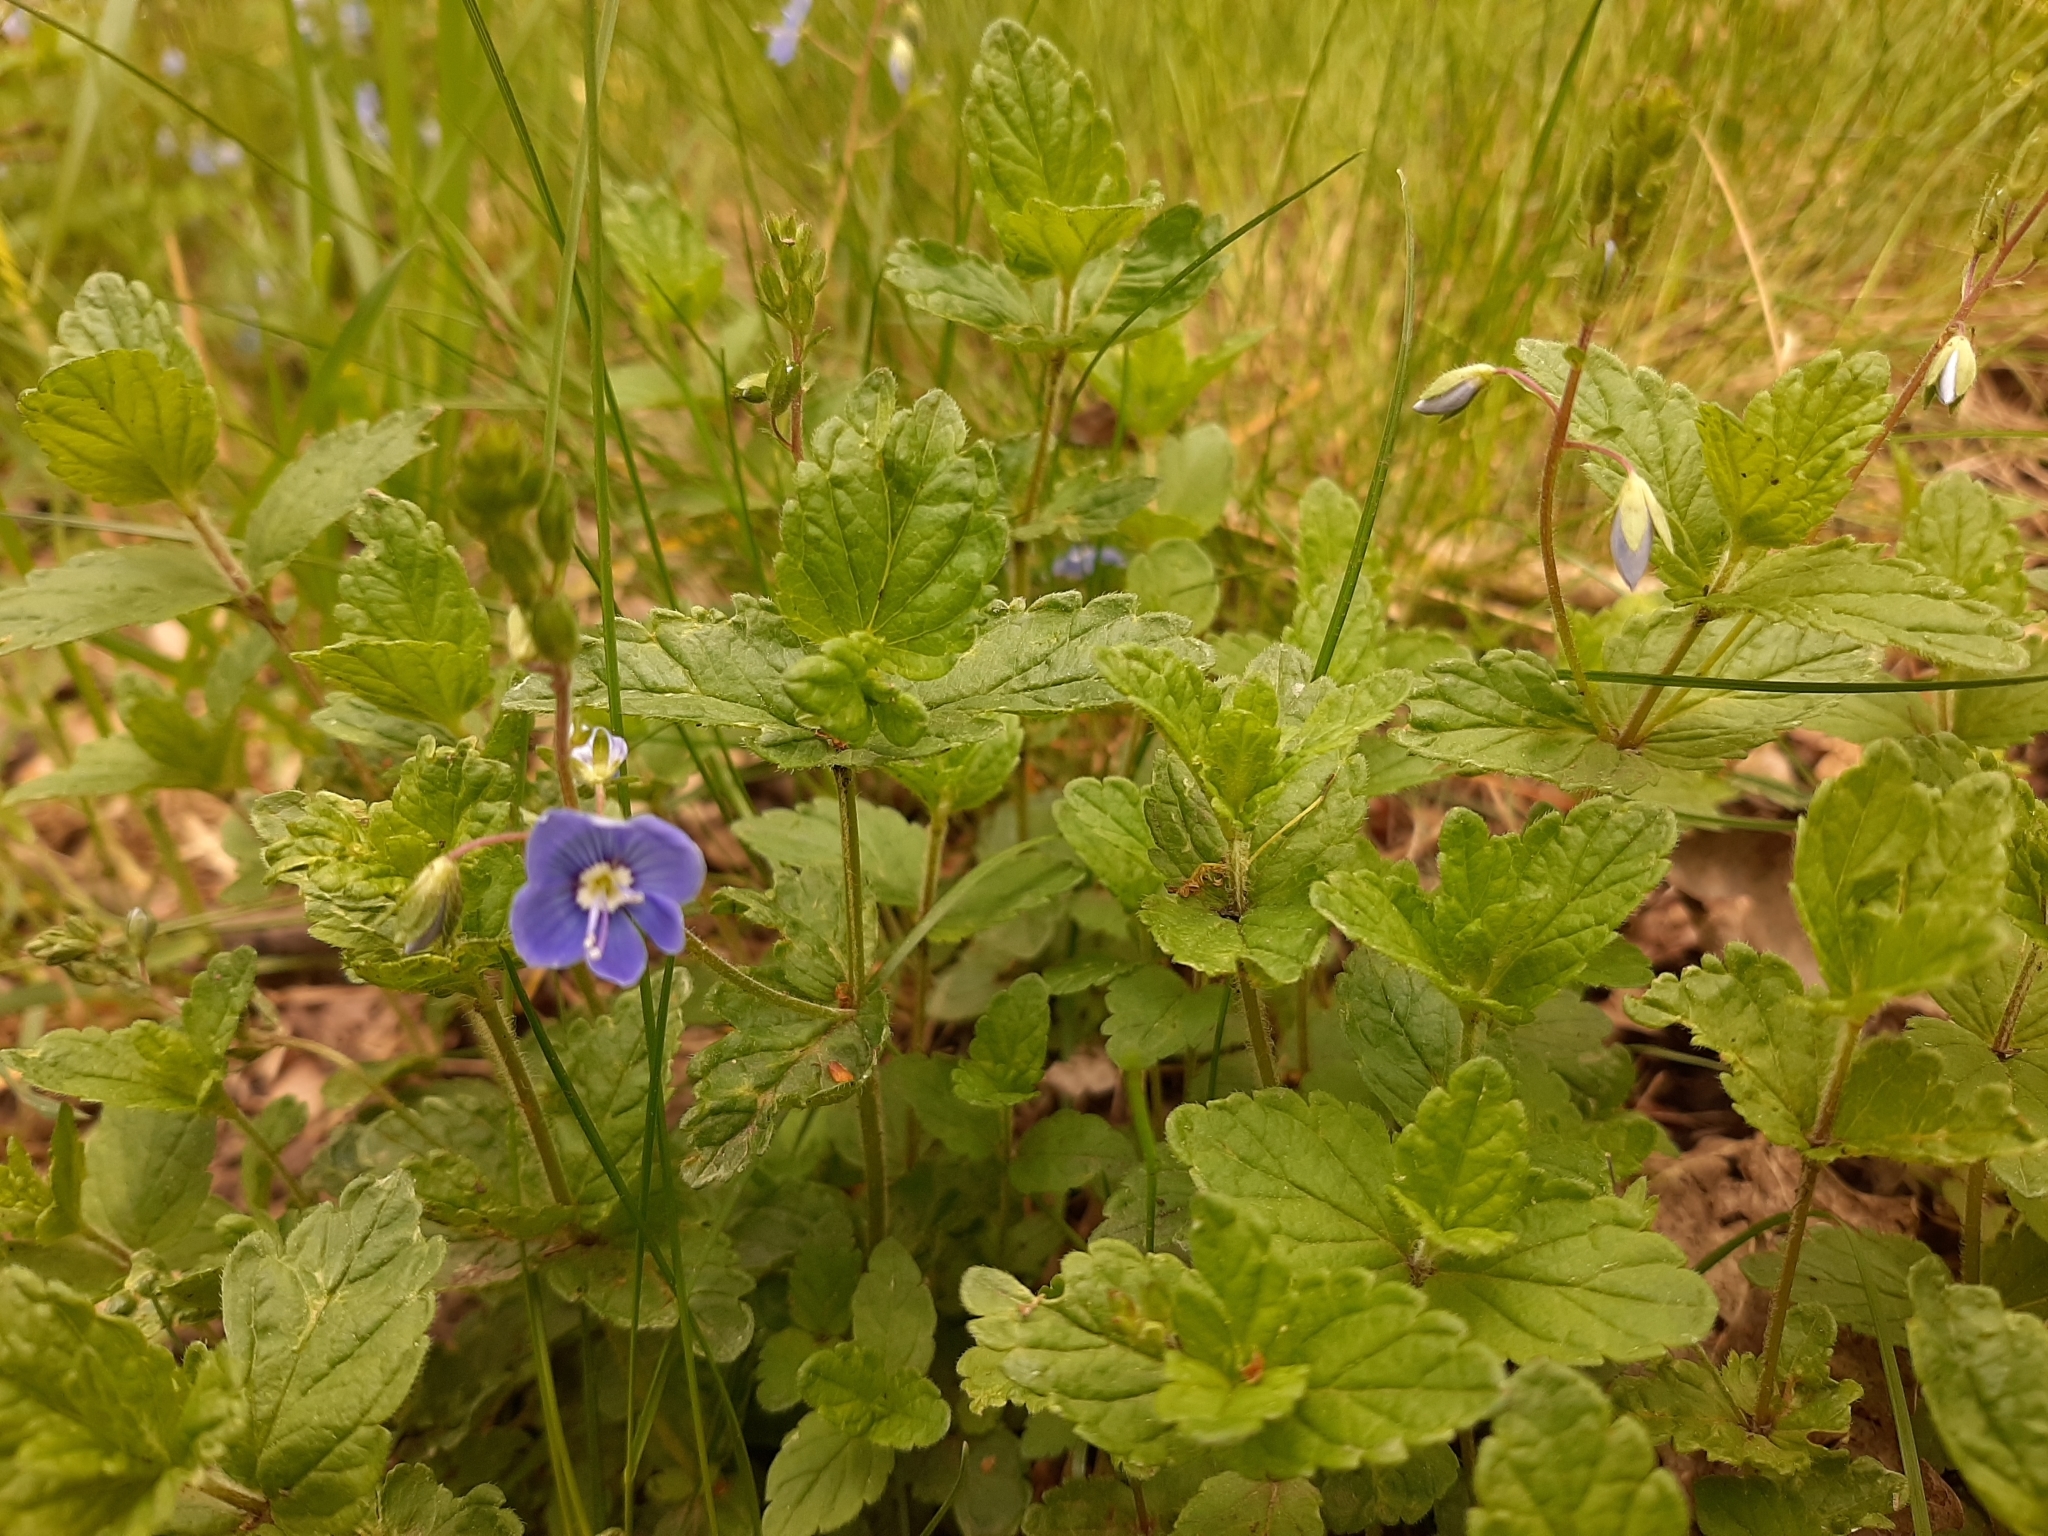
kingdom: Plantae
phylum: Tracheophyta
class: Magnoliopsida
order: Lamiales
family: Plantaginaceae
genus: Veronica
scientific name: Veronica chamaedrys
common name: Germander speedwell
